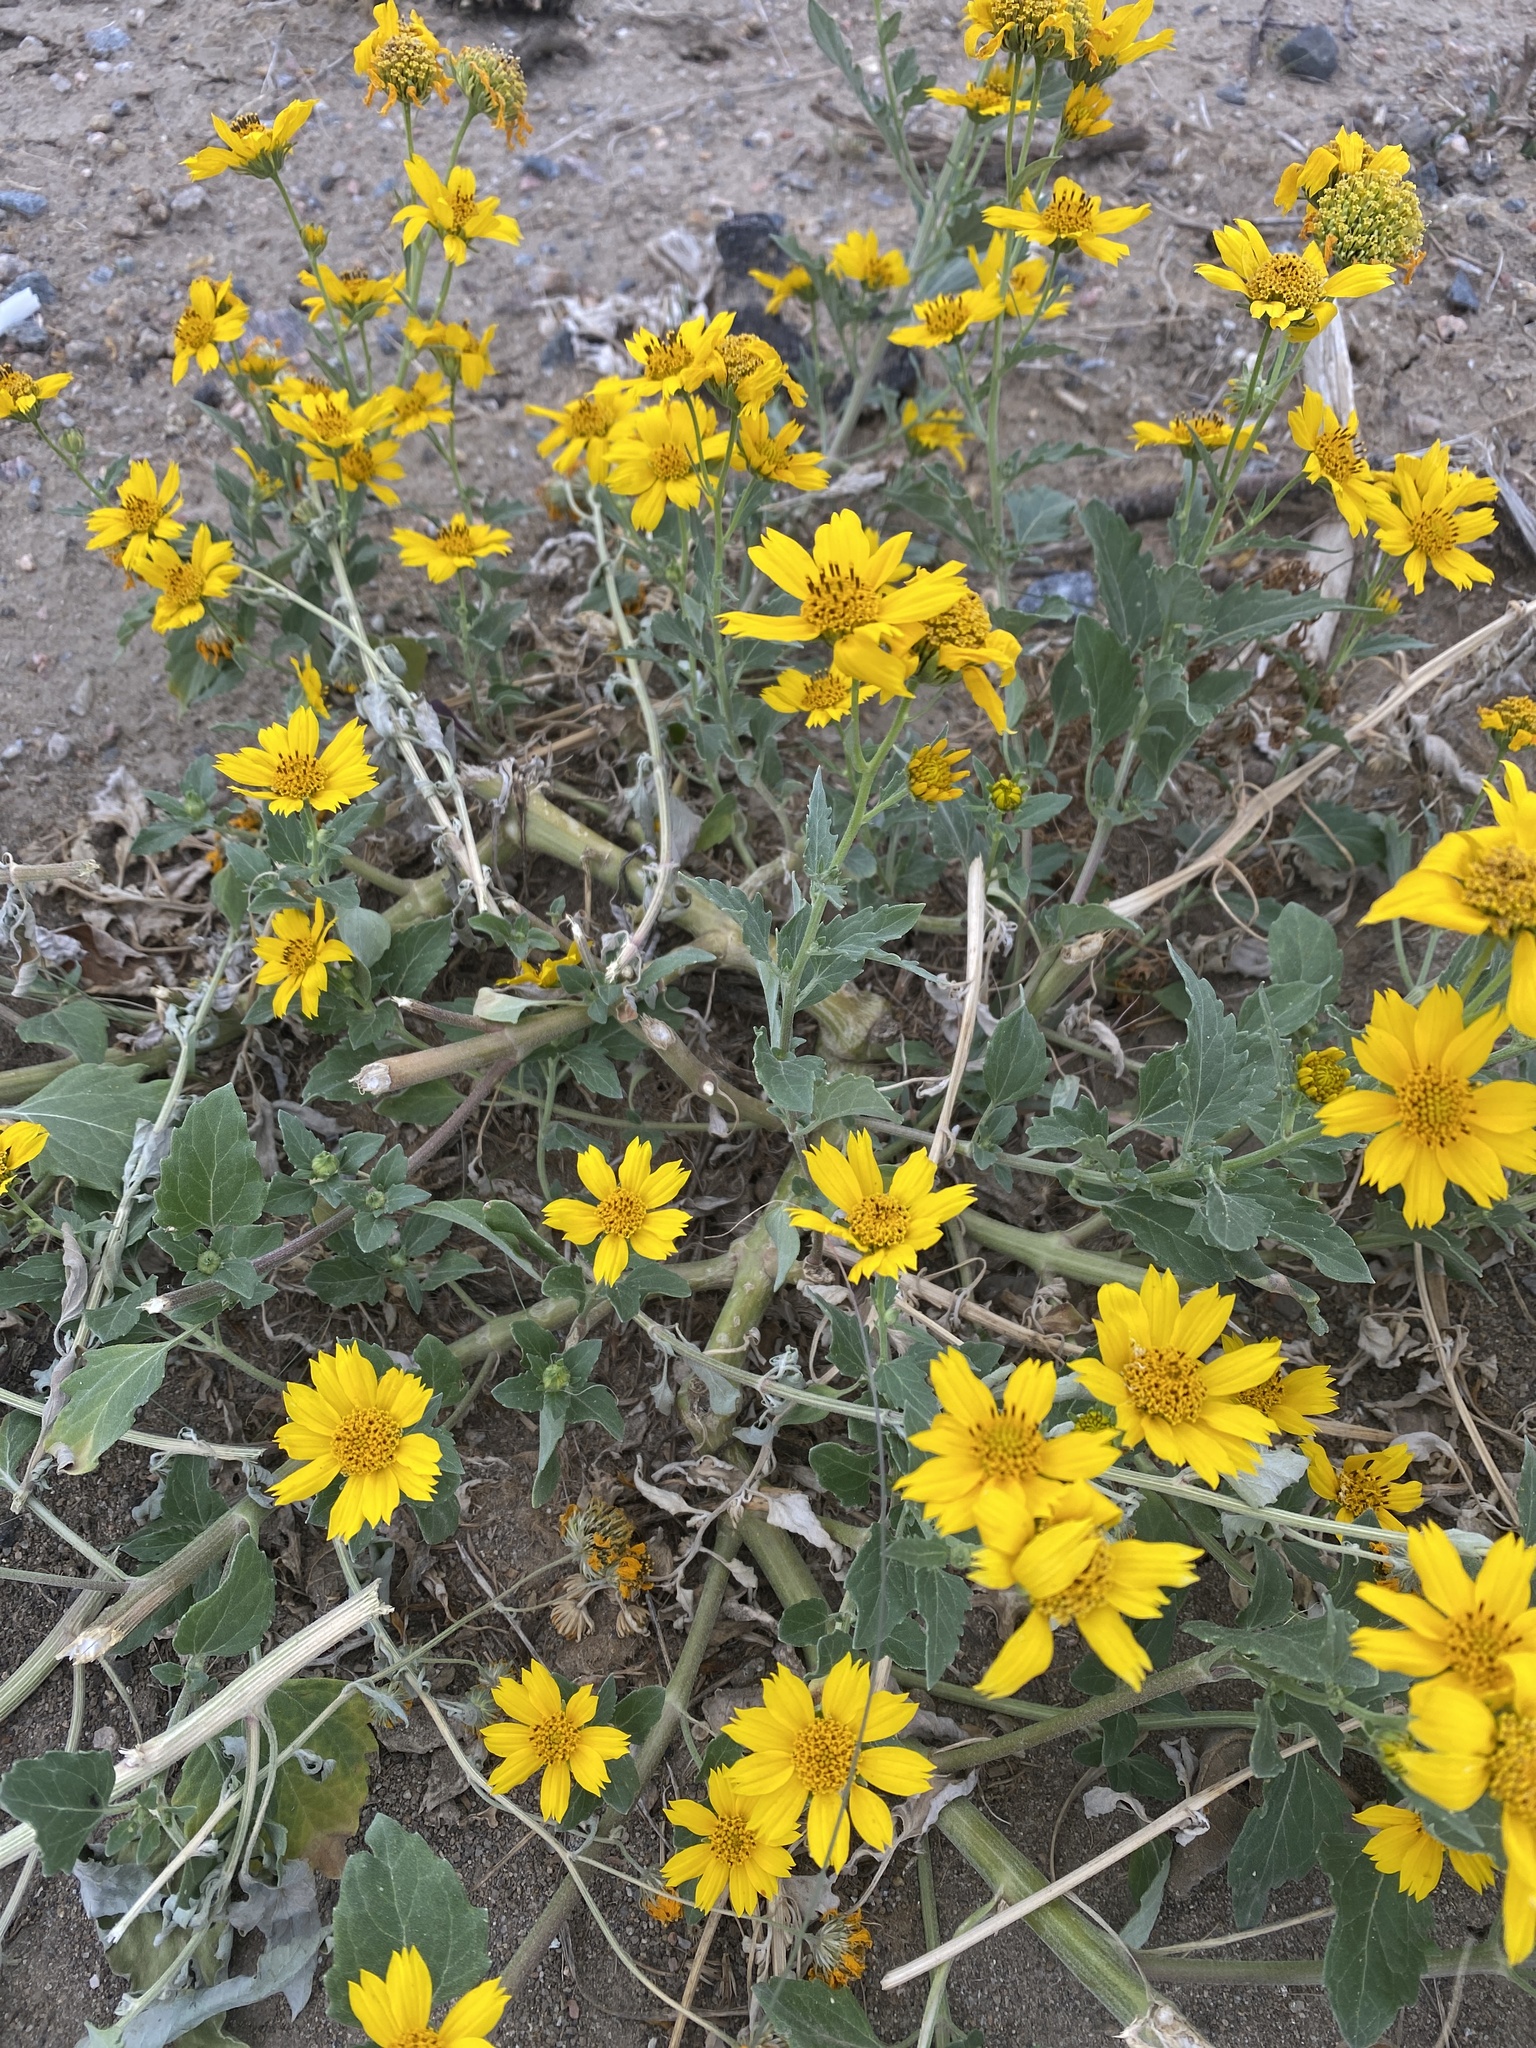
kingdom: Plantae
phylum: Tracheophyta
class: Magnoliopsida
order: Asterales
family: Asteraceae
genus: Verbesina
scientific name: Verbesina encelioides
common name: Golden crownbeard
